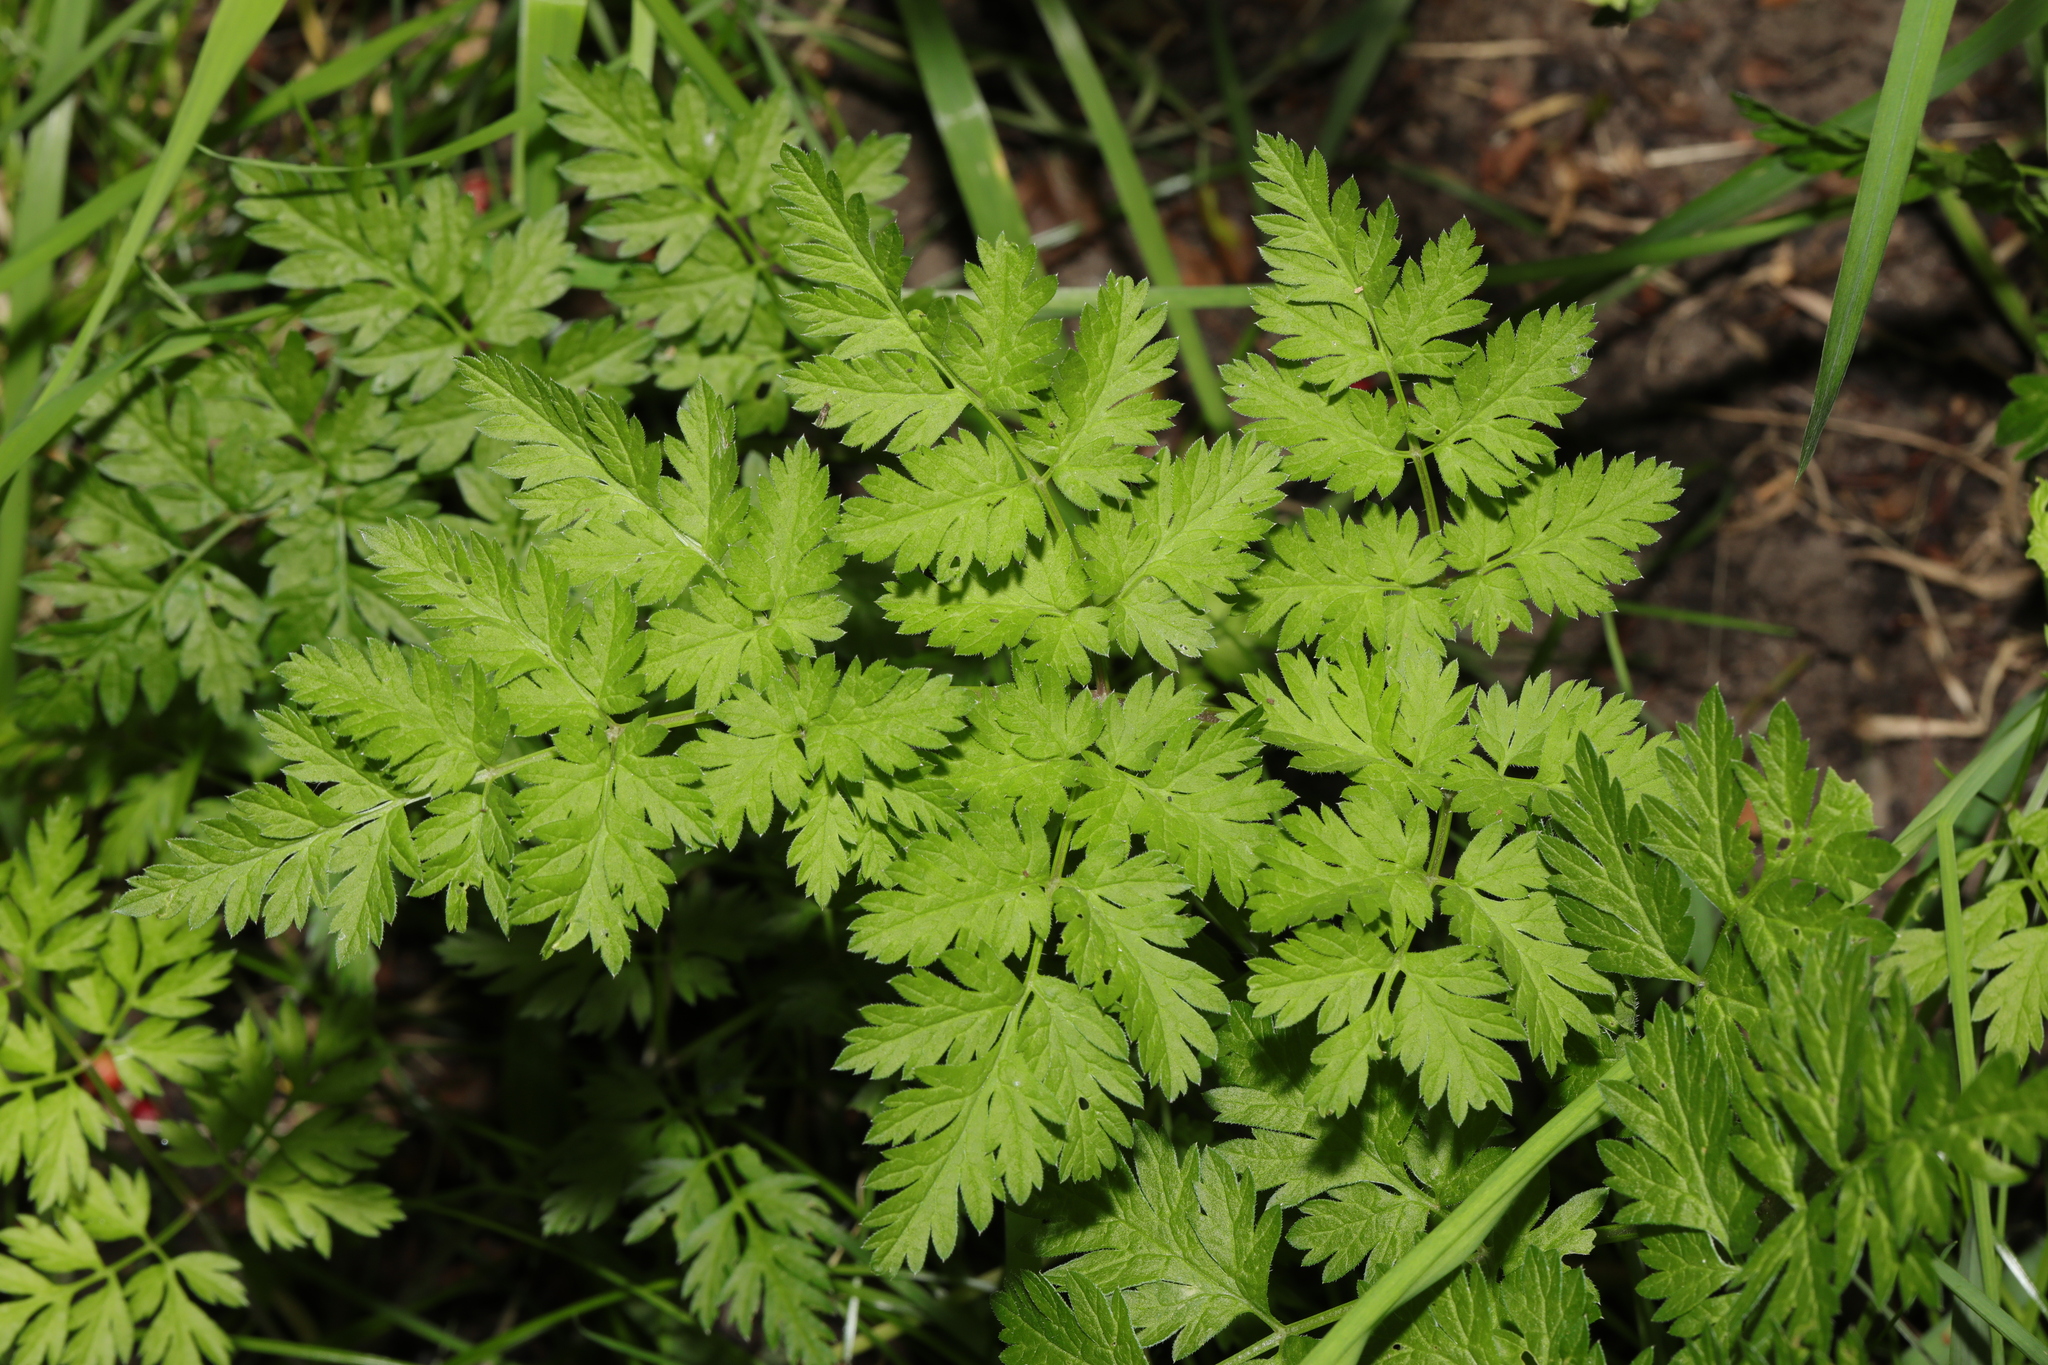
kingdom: Plantae
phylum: Tracheophyta
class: Magnoliopsida
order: Apiales
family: Apiaceae
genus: Anthriscus
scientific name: Anthriscus sylvestris
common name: Cow parsley
